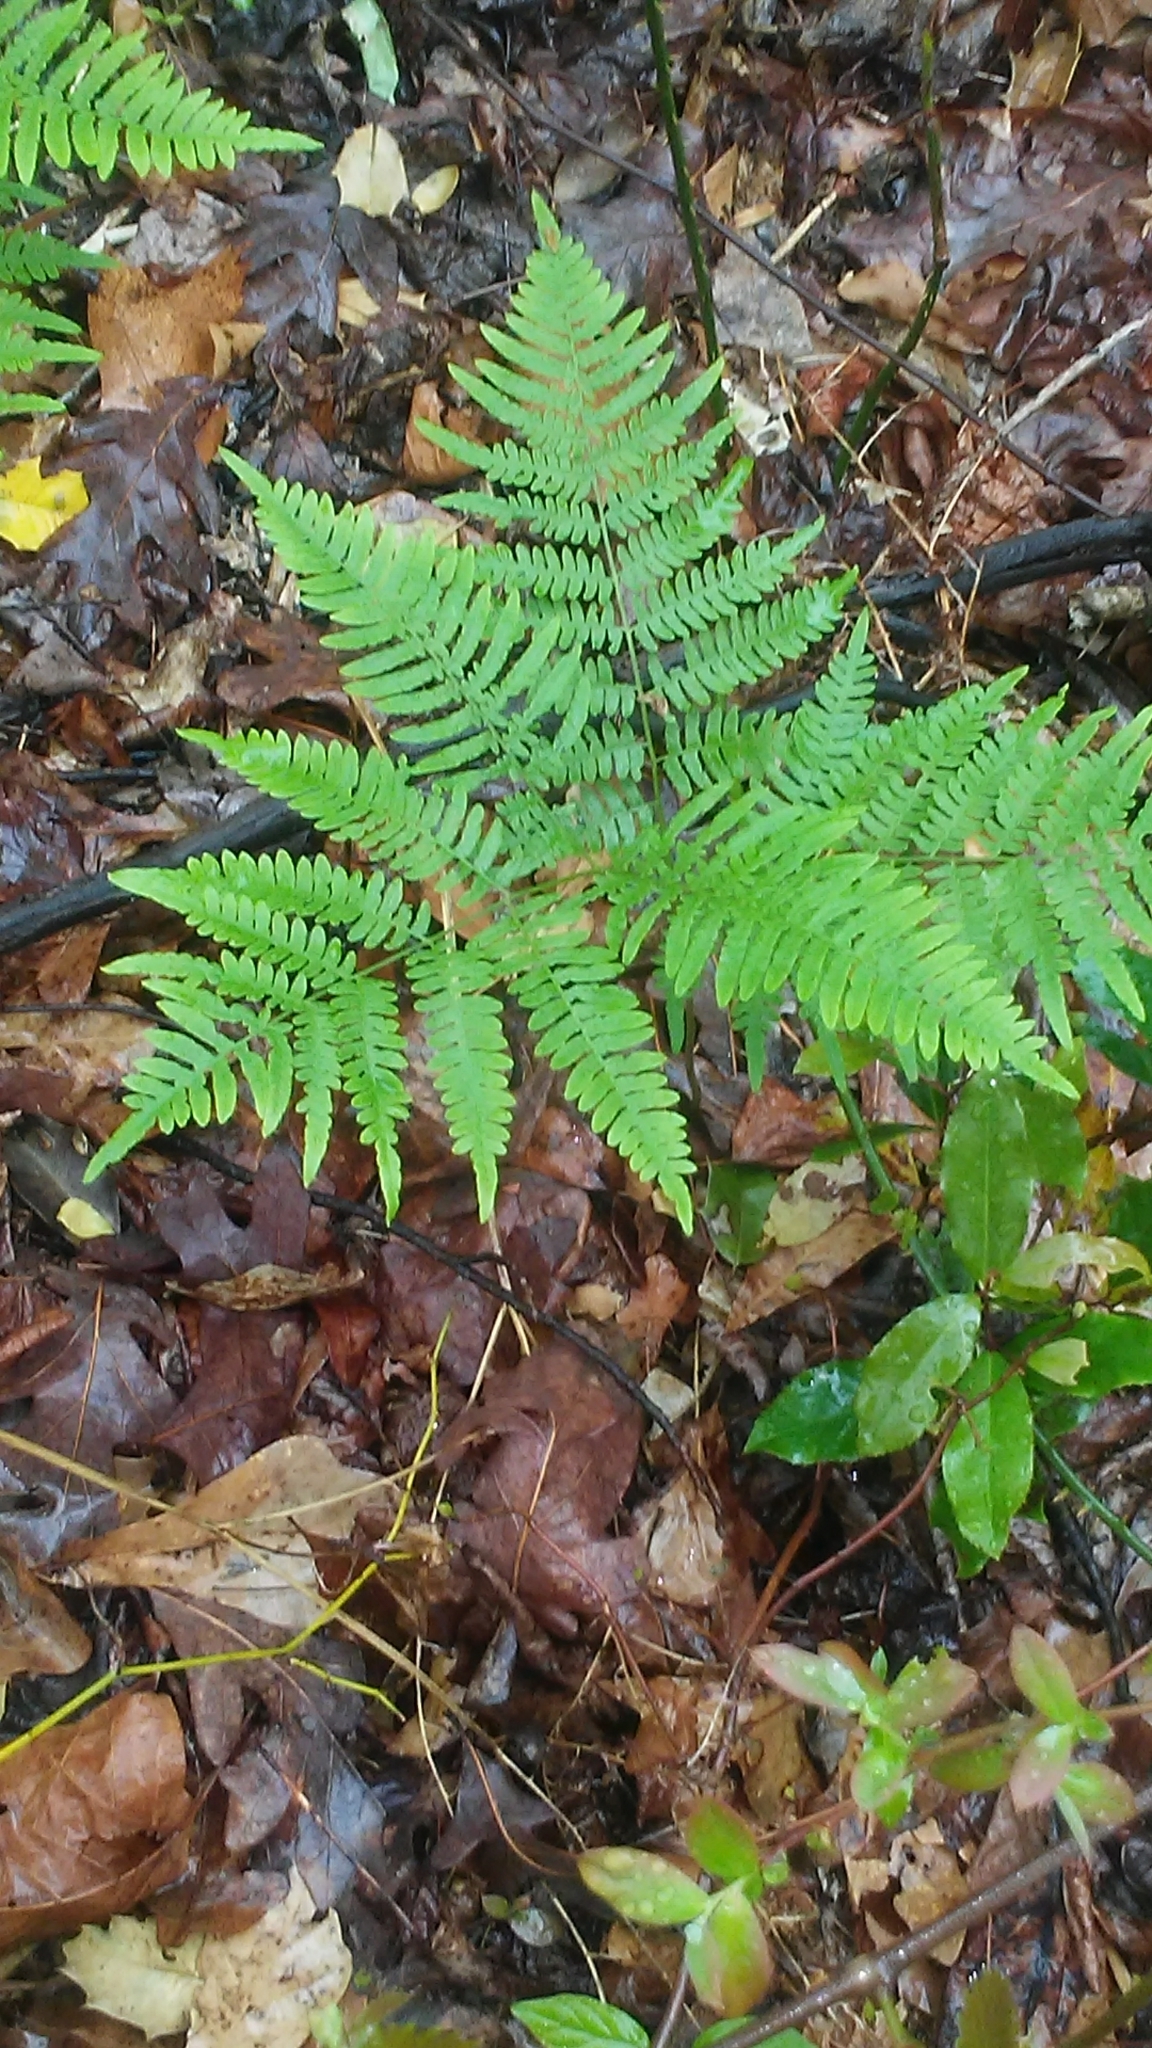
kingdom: Plantae
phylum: Tracheophyta
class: Polypodiopsida
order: Polypodiales
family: Dennstaedtiaceae
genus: Pteridium
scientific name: Pteridium aquilinum
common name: Bracken
